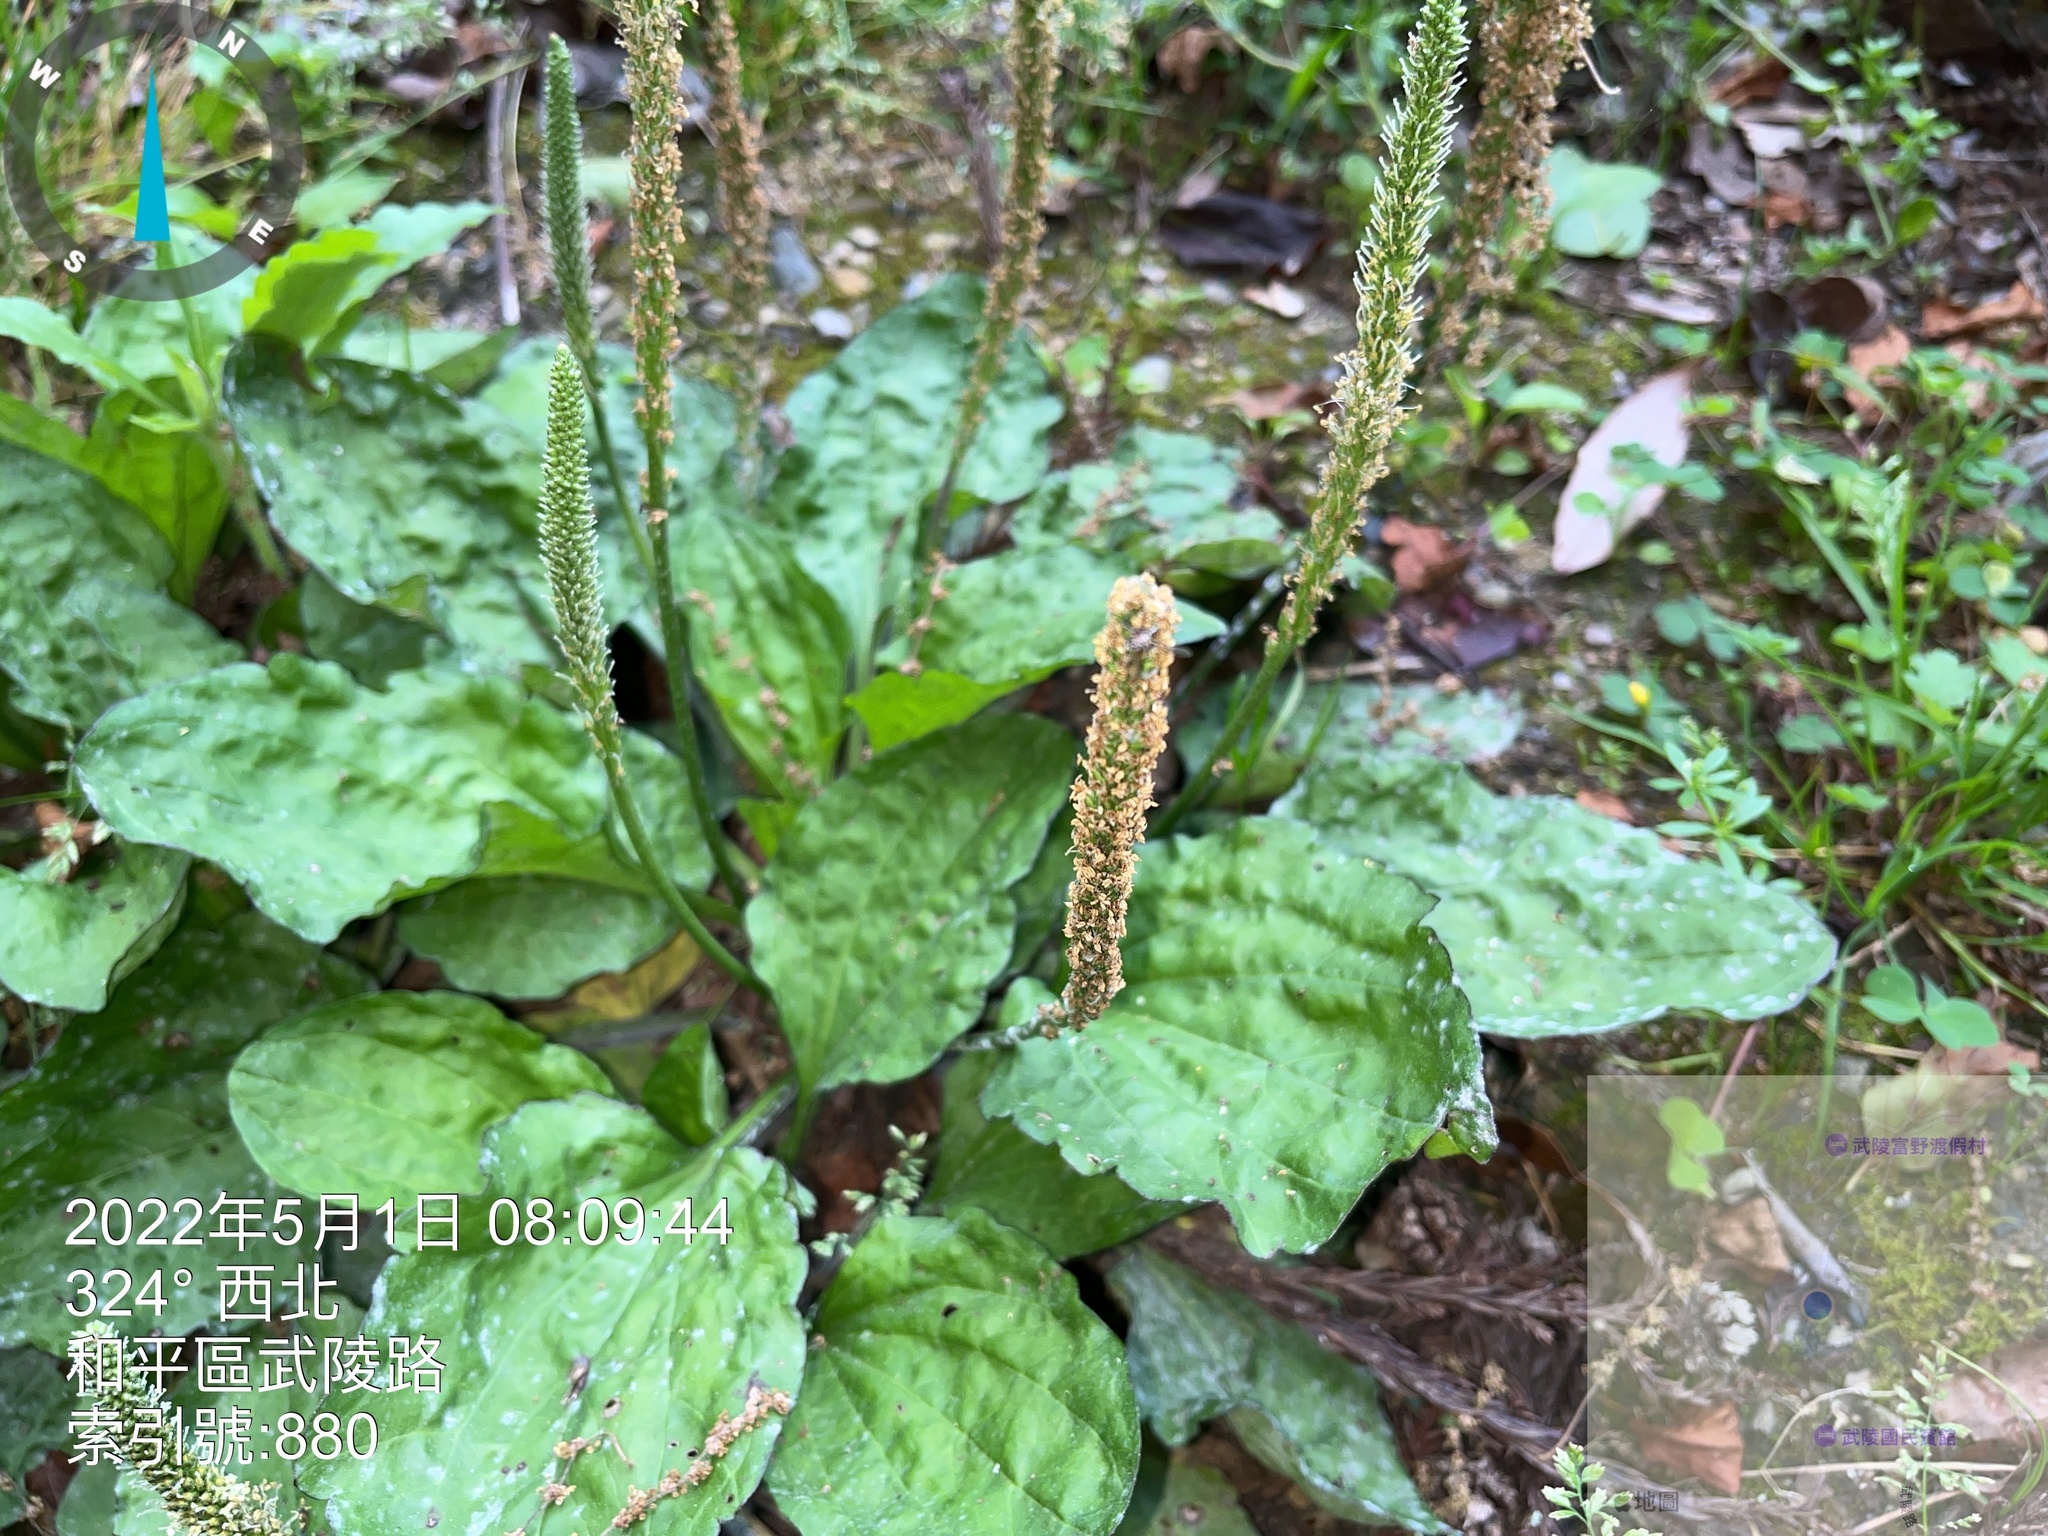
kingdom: Plantae
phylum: Tracheophyta
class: Magnoliopsida
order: Lamiales
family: Plantaginaceae
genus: Plantago
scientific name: Plantago asiatica
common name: Psyllium
